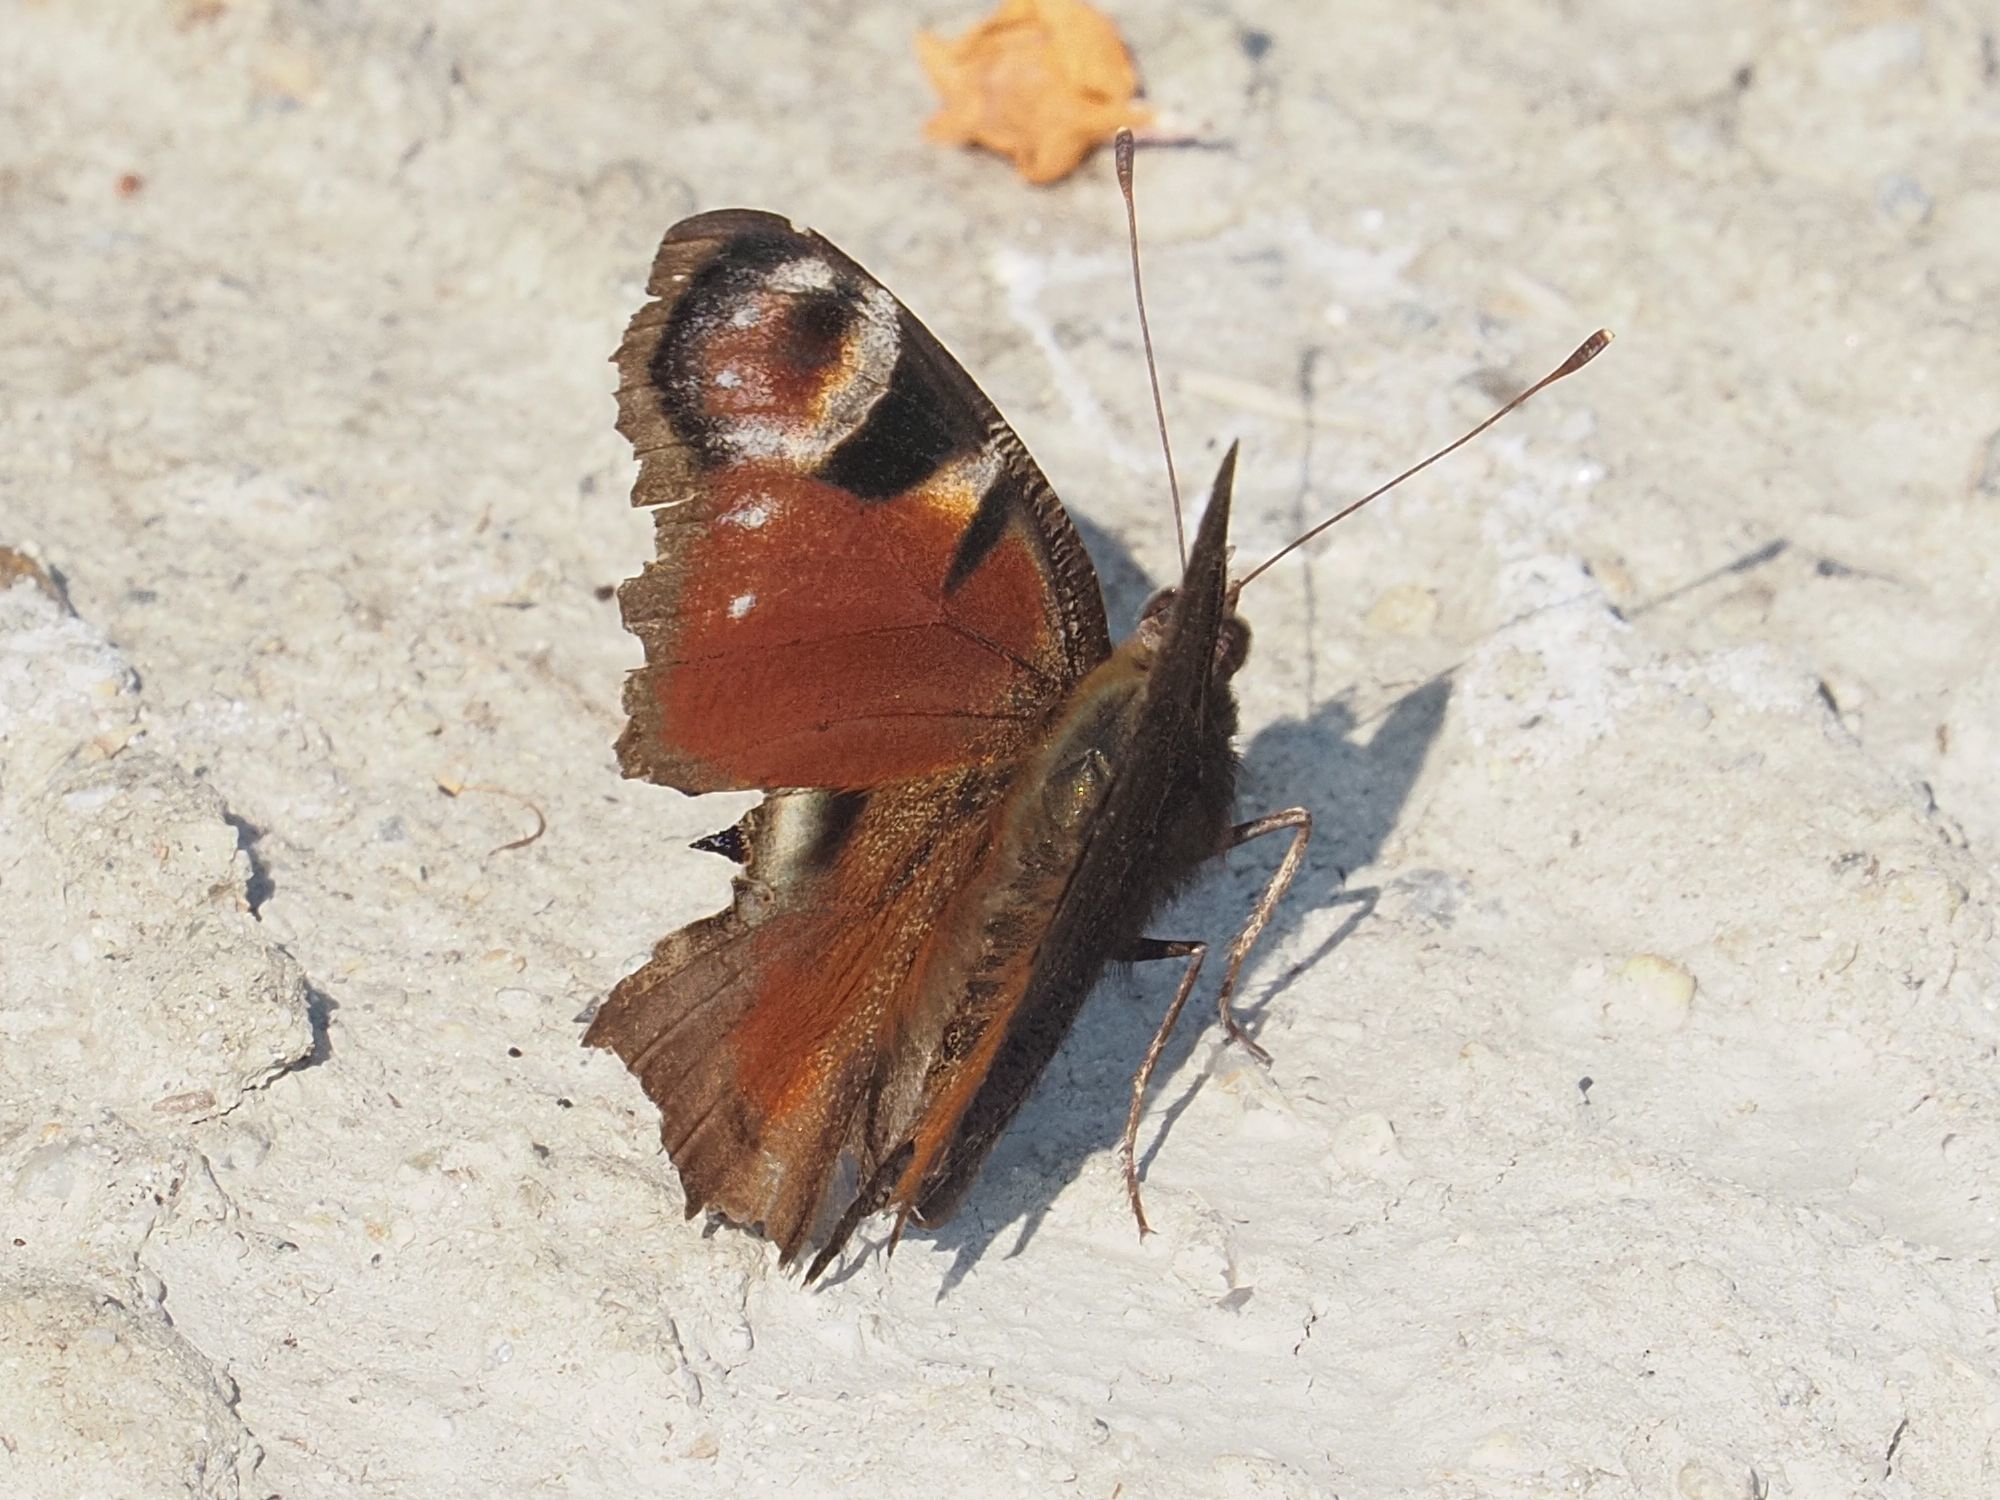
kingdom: Animalia
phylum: Arthropoda
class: Insecta
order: Lepidoptera
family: Nymphalidae
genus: Aglais
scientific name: Aglais io
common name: Peacock
